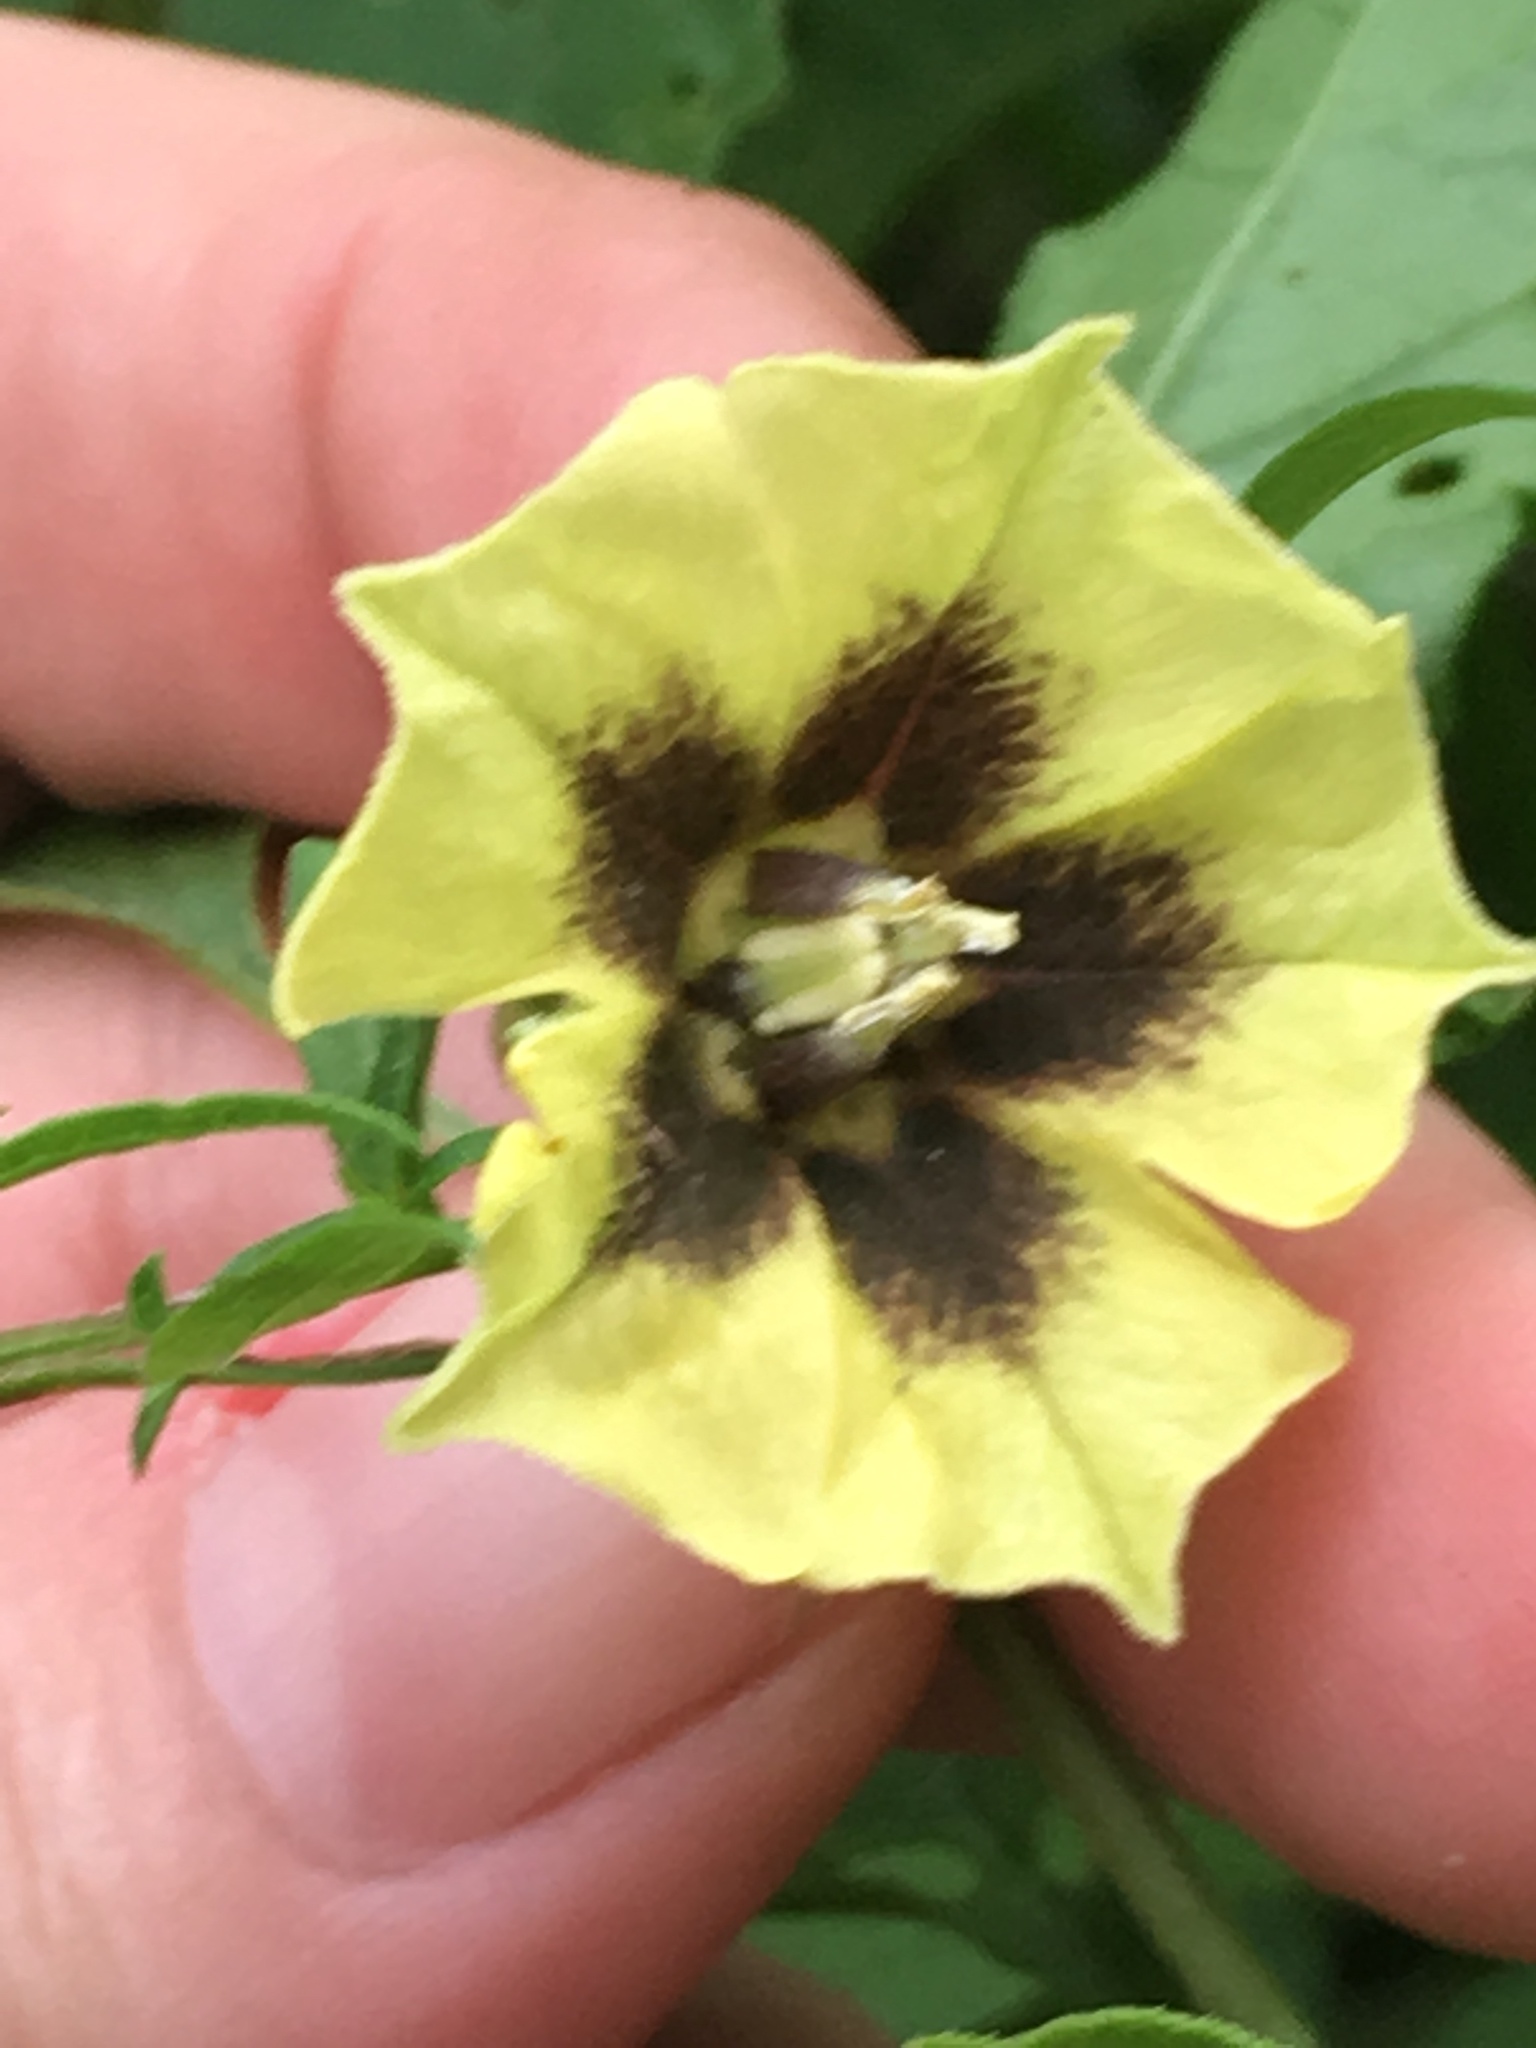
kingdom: Plantae
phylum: Tracheophyta
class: Magnoliopsida
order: Solanales
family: Solanaceae
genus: Physalis
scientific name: Physalis longifolia
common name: Common ground-cherry
